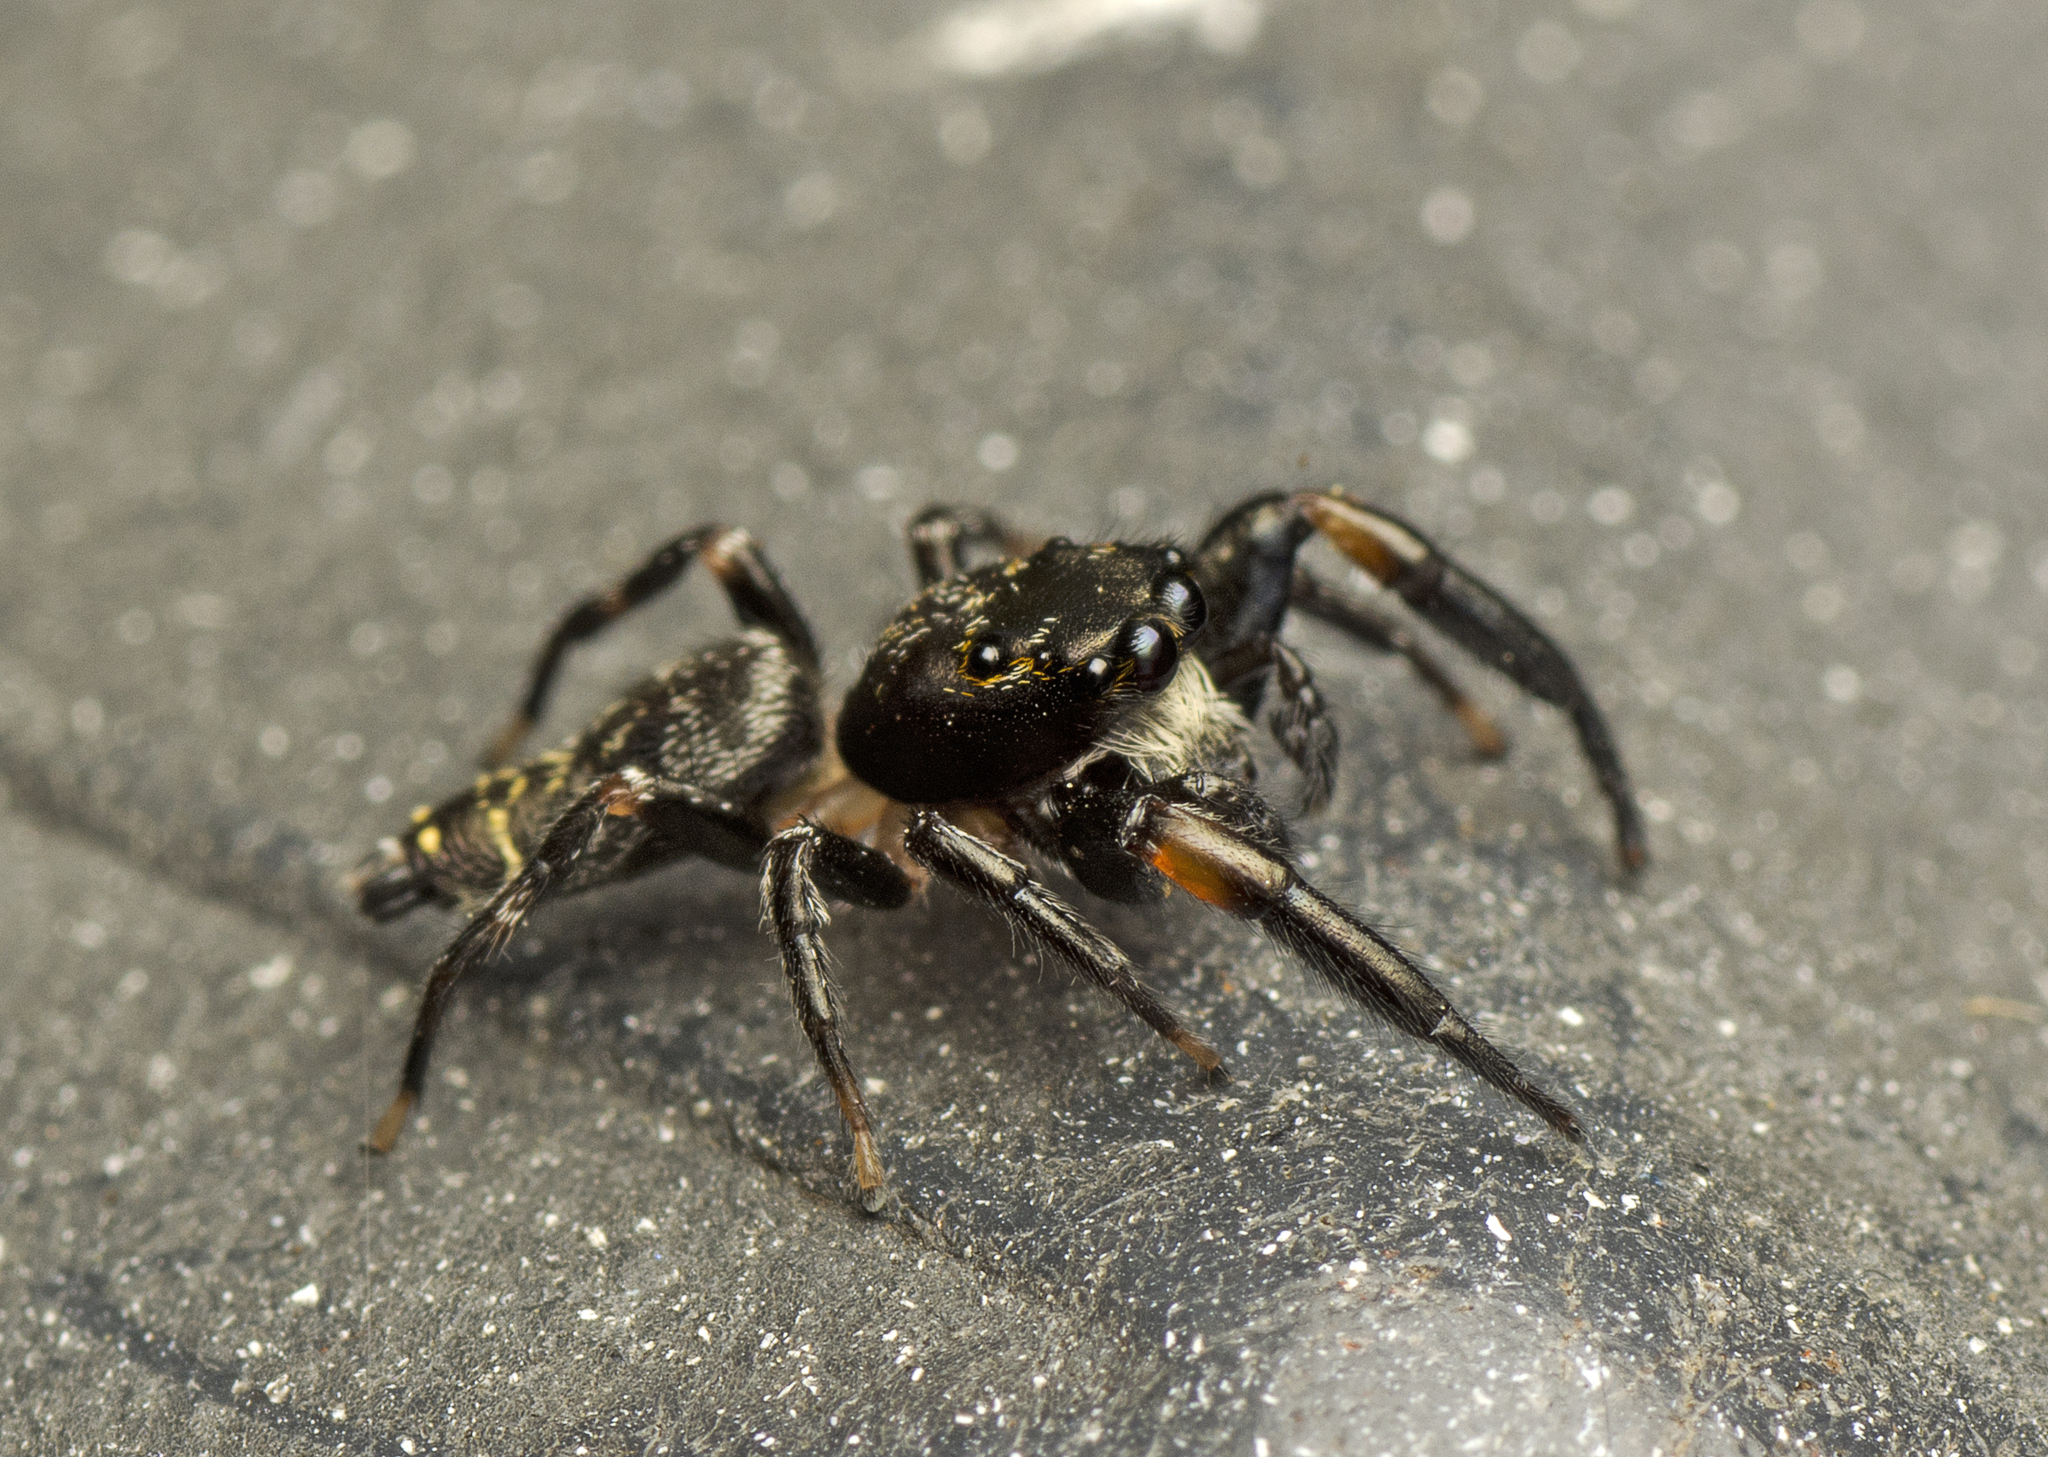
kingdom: Animalia
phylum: Arthropoda
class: Arachnida
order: Araneae
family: Salticidae
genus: Pungalina
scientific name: Pungalina plurilineata
